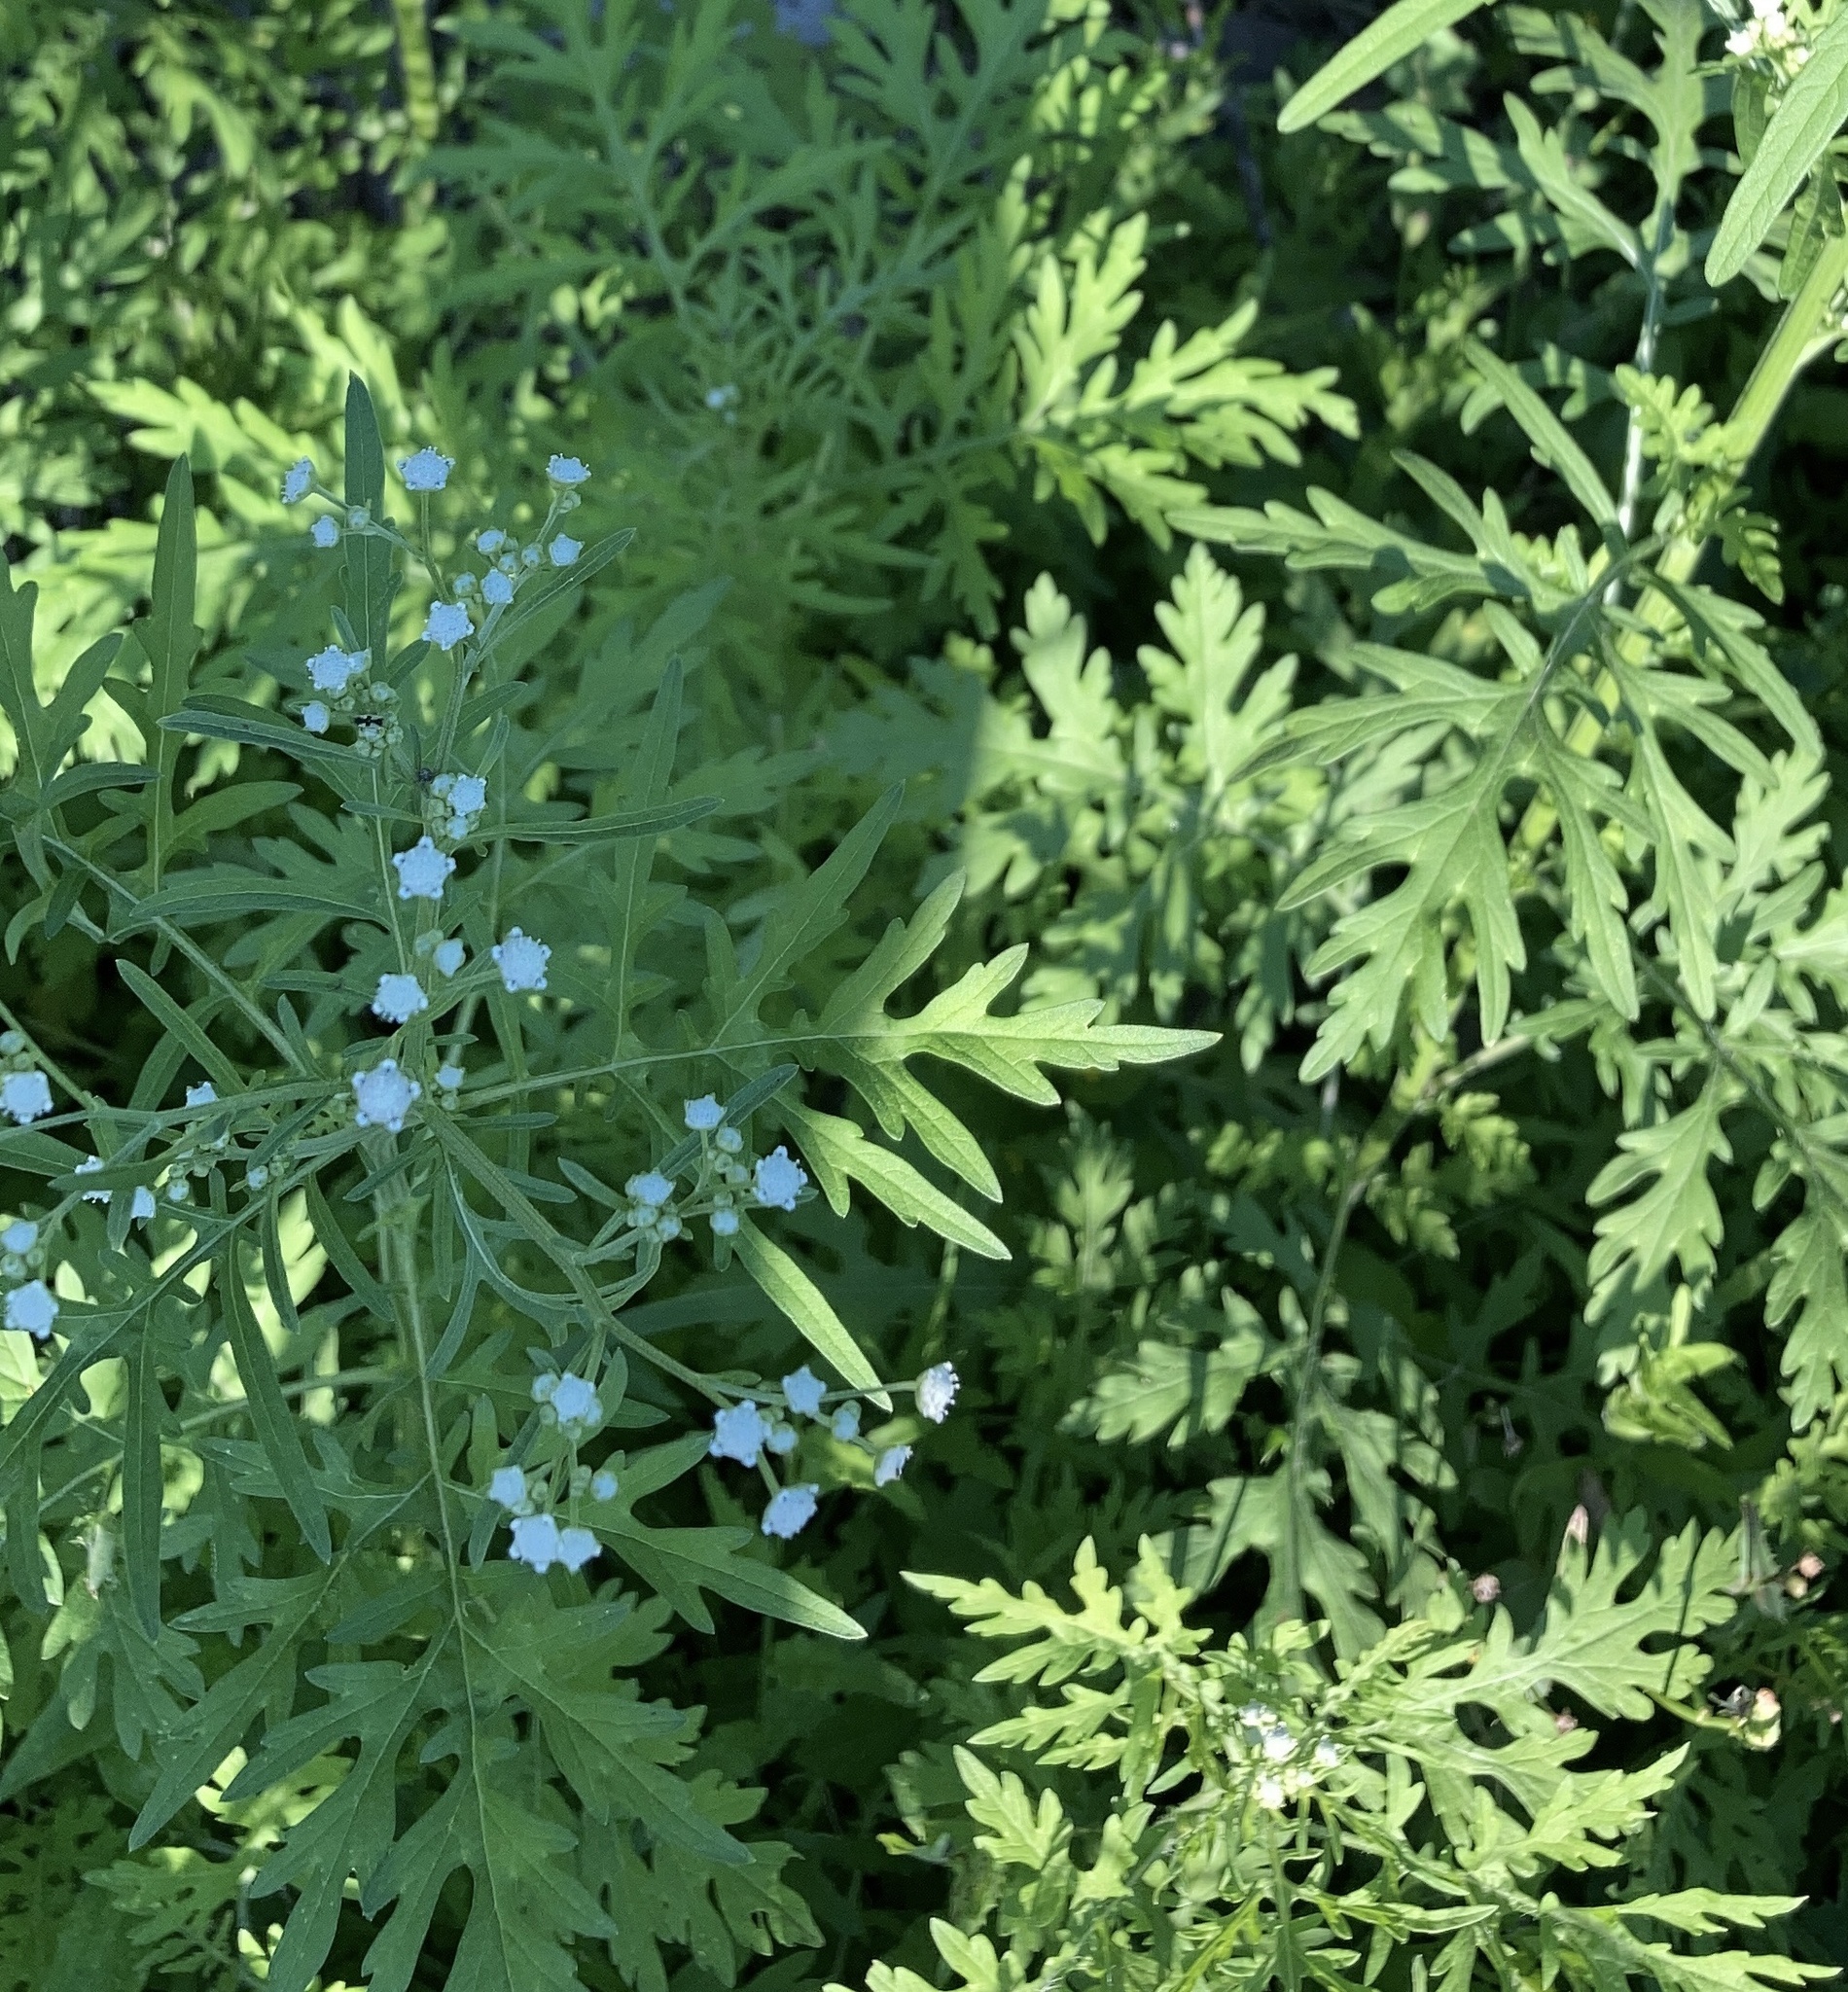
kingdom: Plantae
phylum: Tracheophyta
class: Magnoliopsida
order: Asterales
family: Asteraceae
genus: Parthenium
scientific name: Parthenium hysterophorus
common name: Santa maria feverfew
